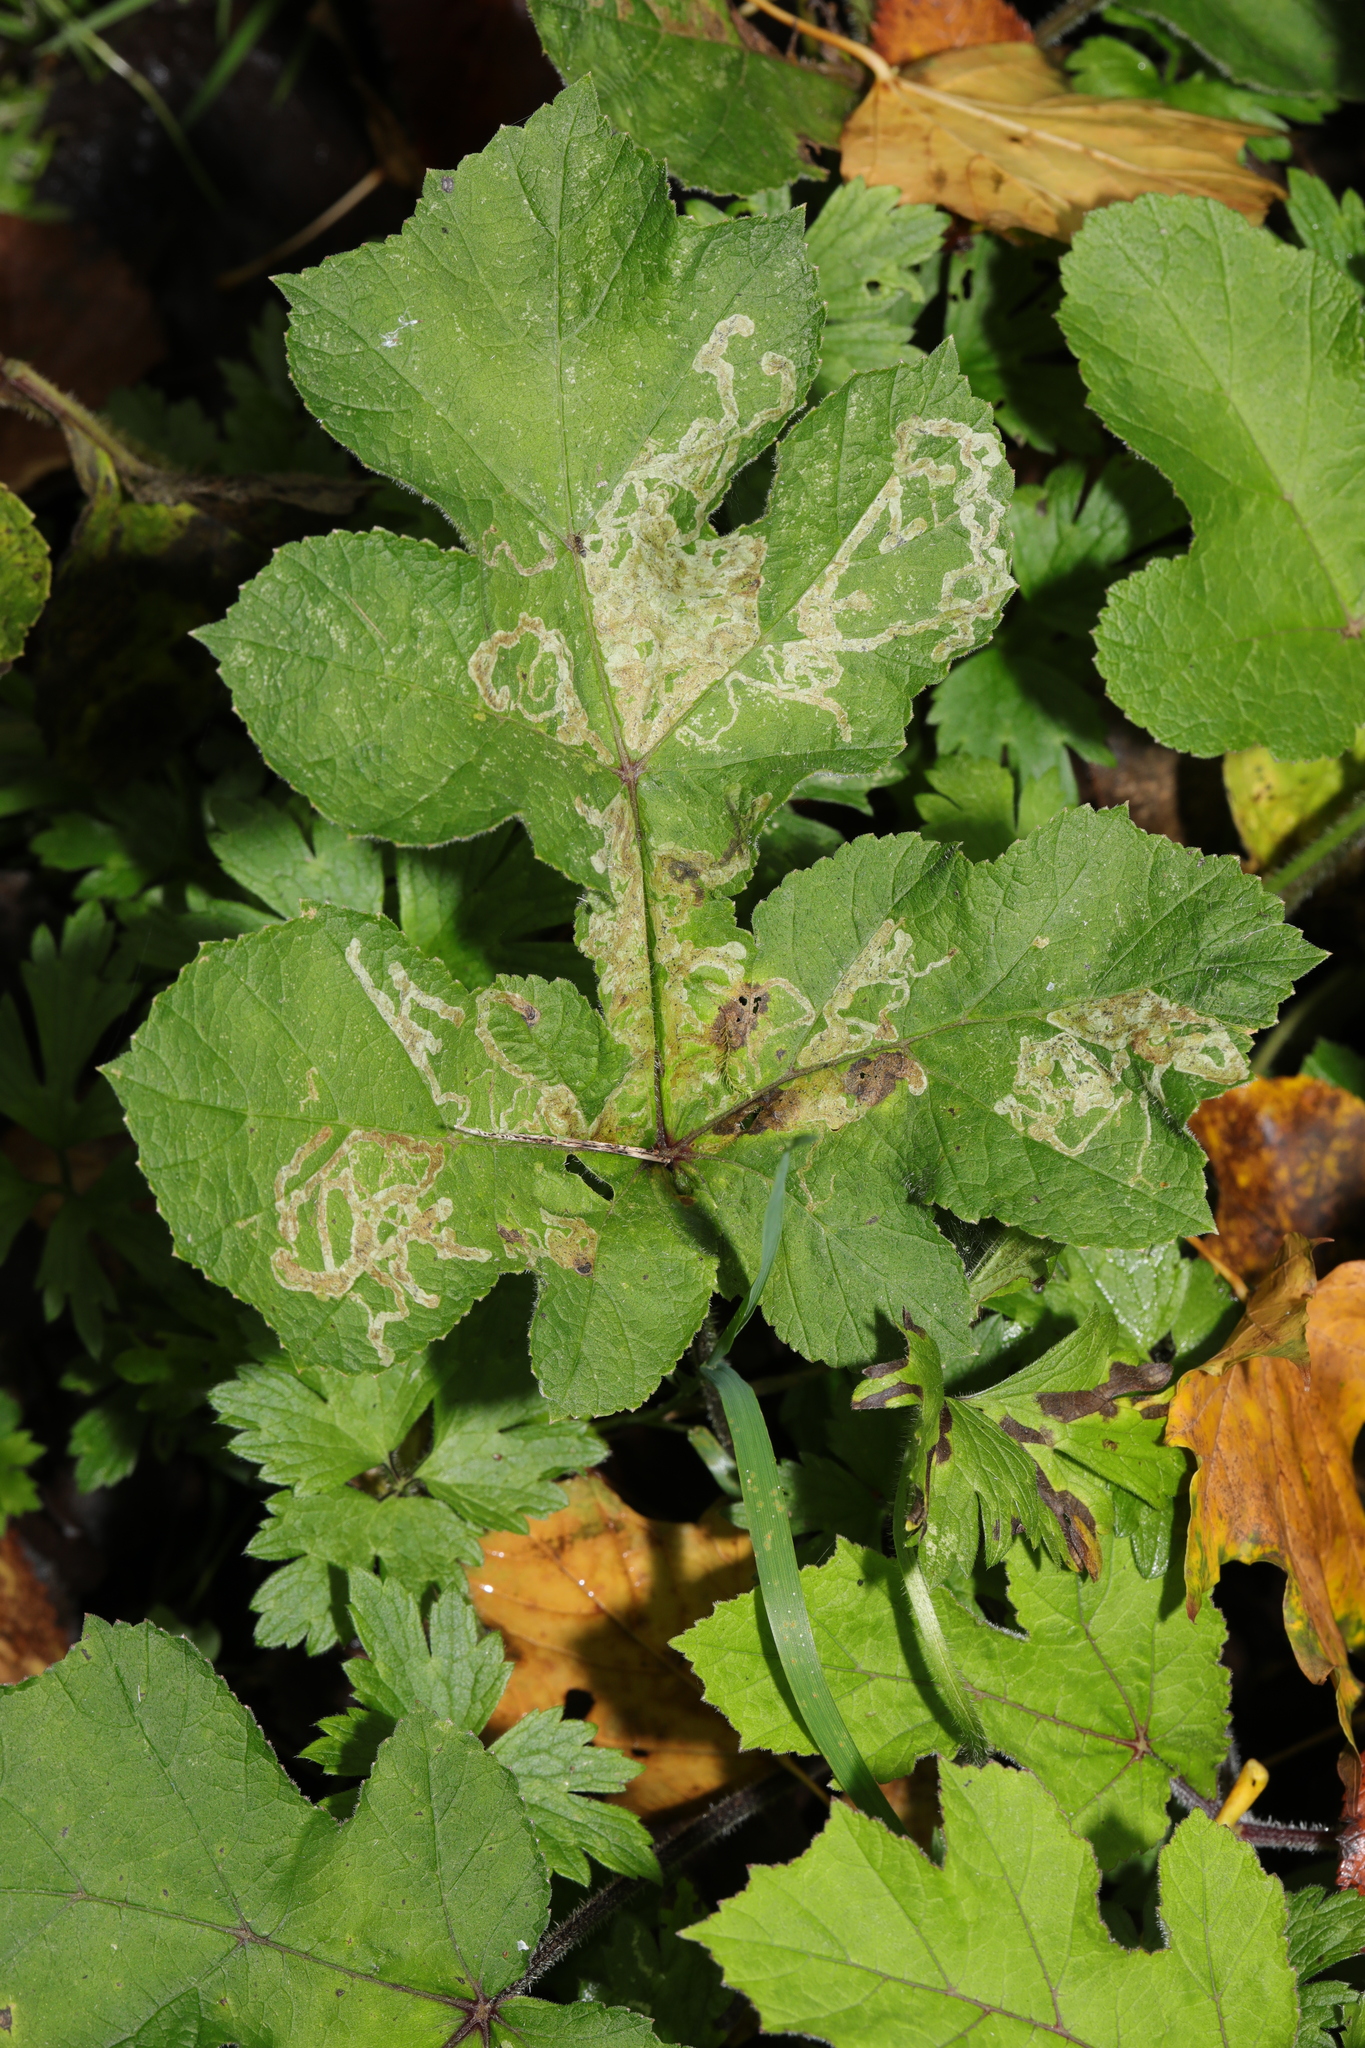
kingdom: Plantae
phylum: Tracheophyta
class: Magnoliopsida
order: Apiales
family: Apiaceae
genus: Heracleum
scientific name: Heracleum sphondylium
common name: Hogweed
